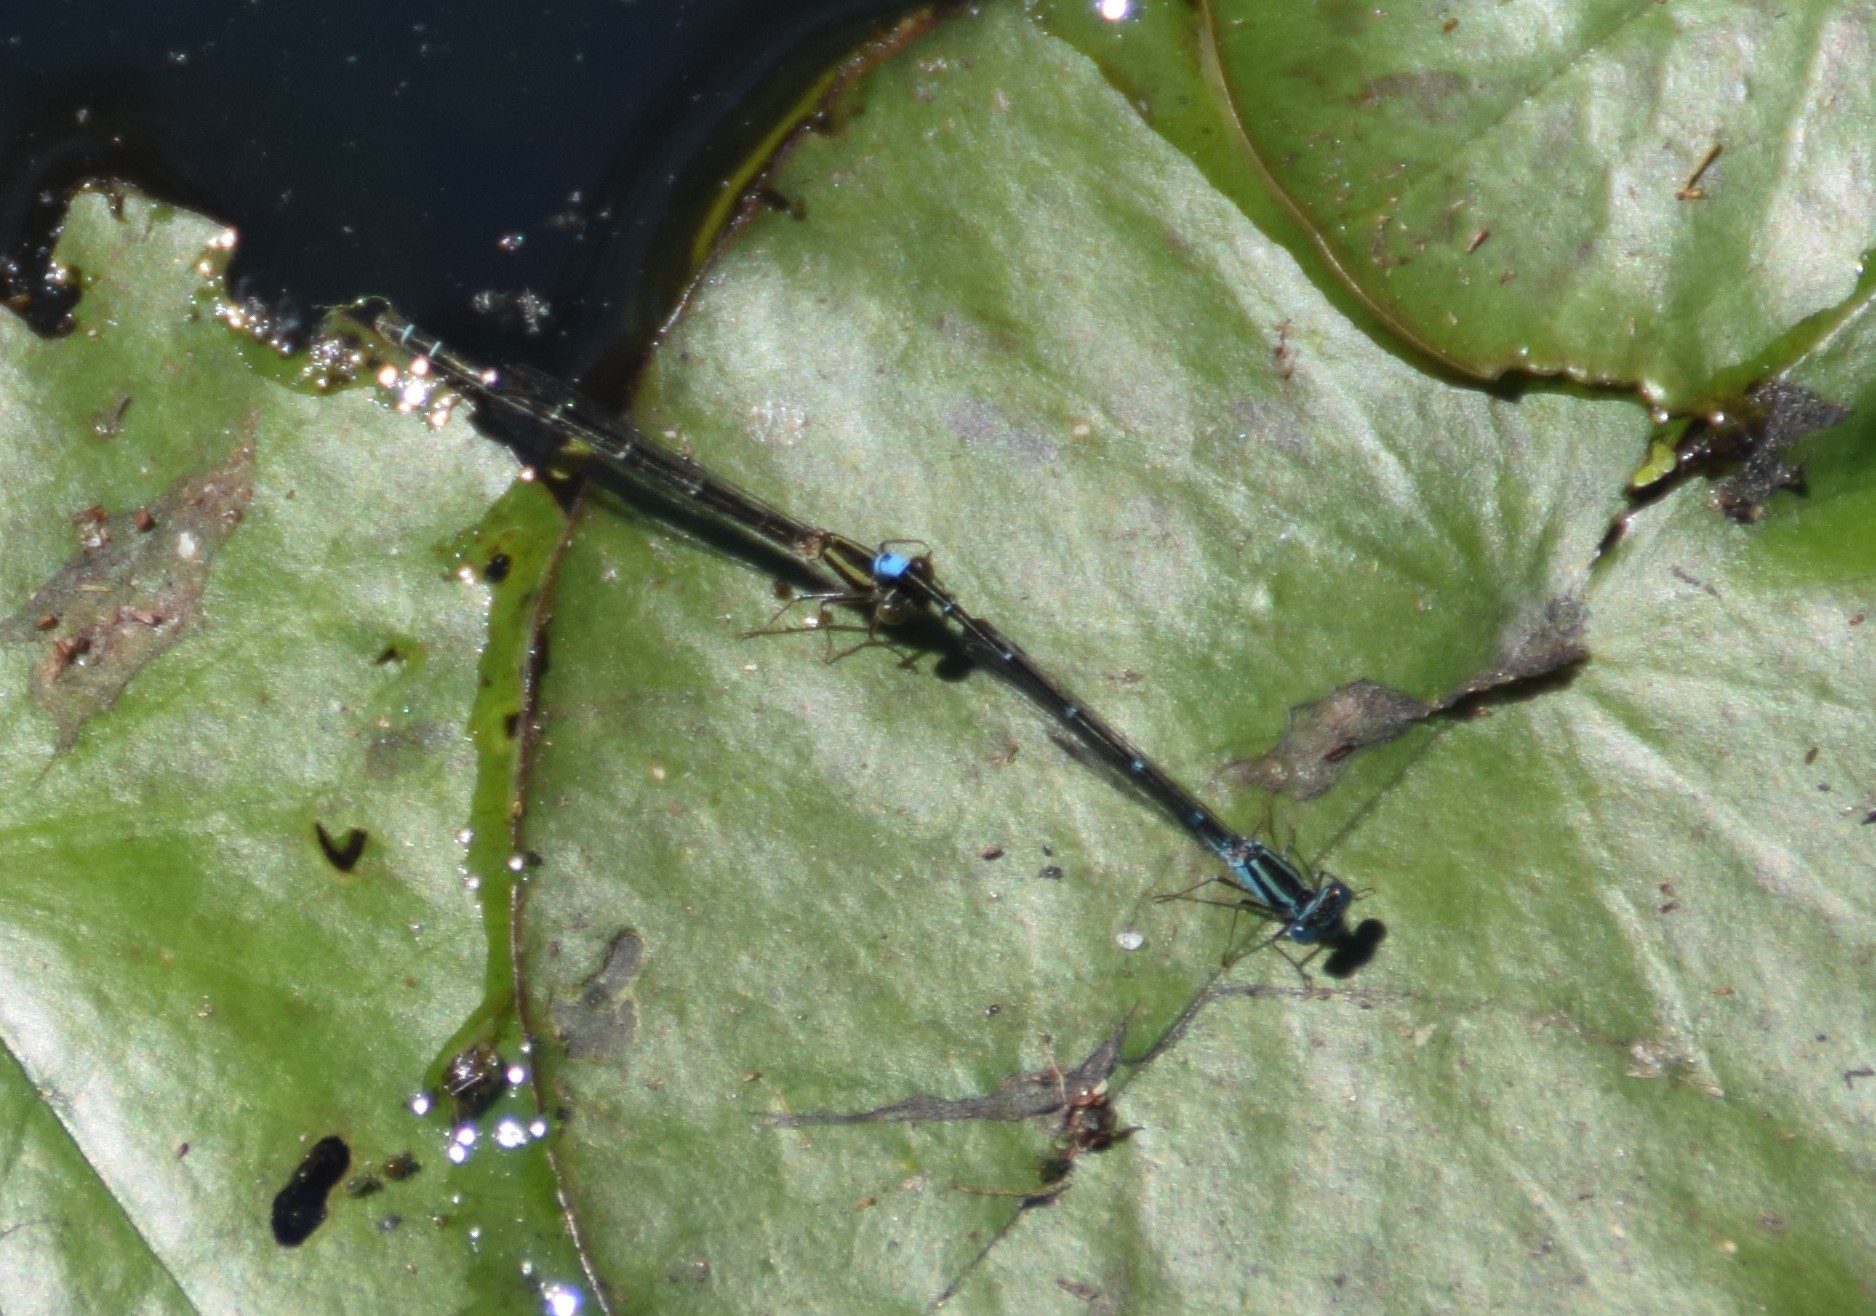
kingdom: Animalia
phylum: Arthropoda
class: Insecta
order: Odonata
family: Coenagrionidae
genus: Austroagrion
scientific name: Austroagrion watsoni
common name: Eastern billabongfly
